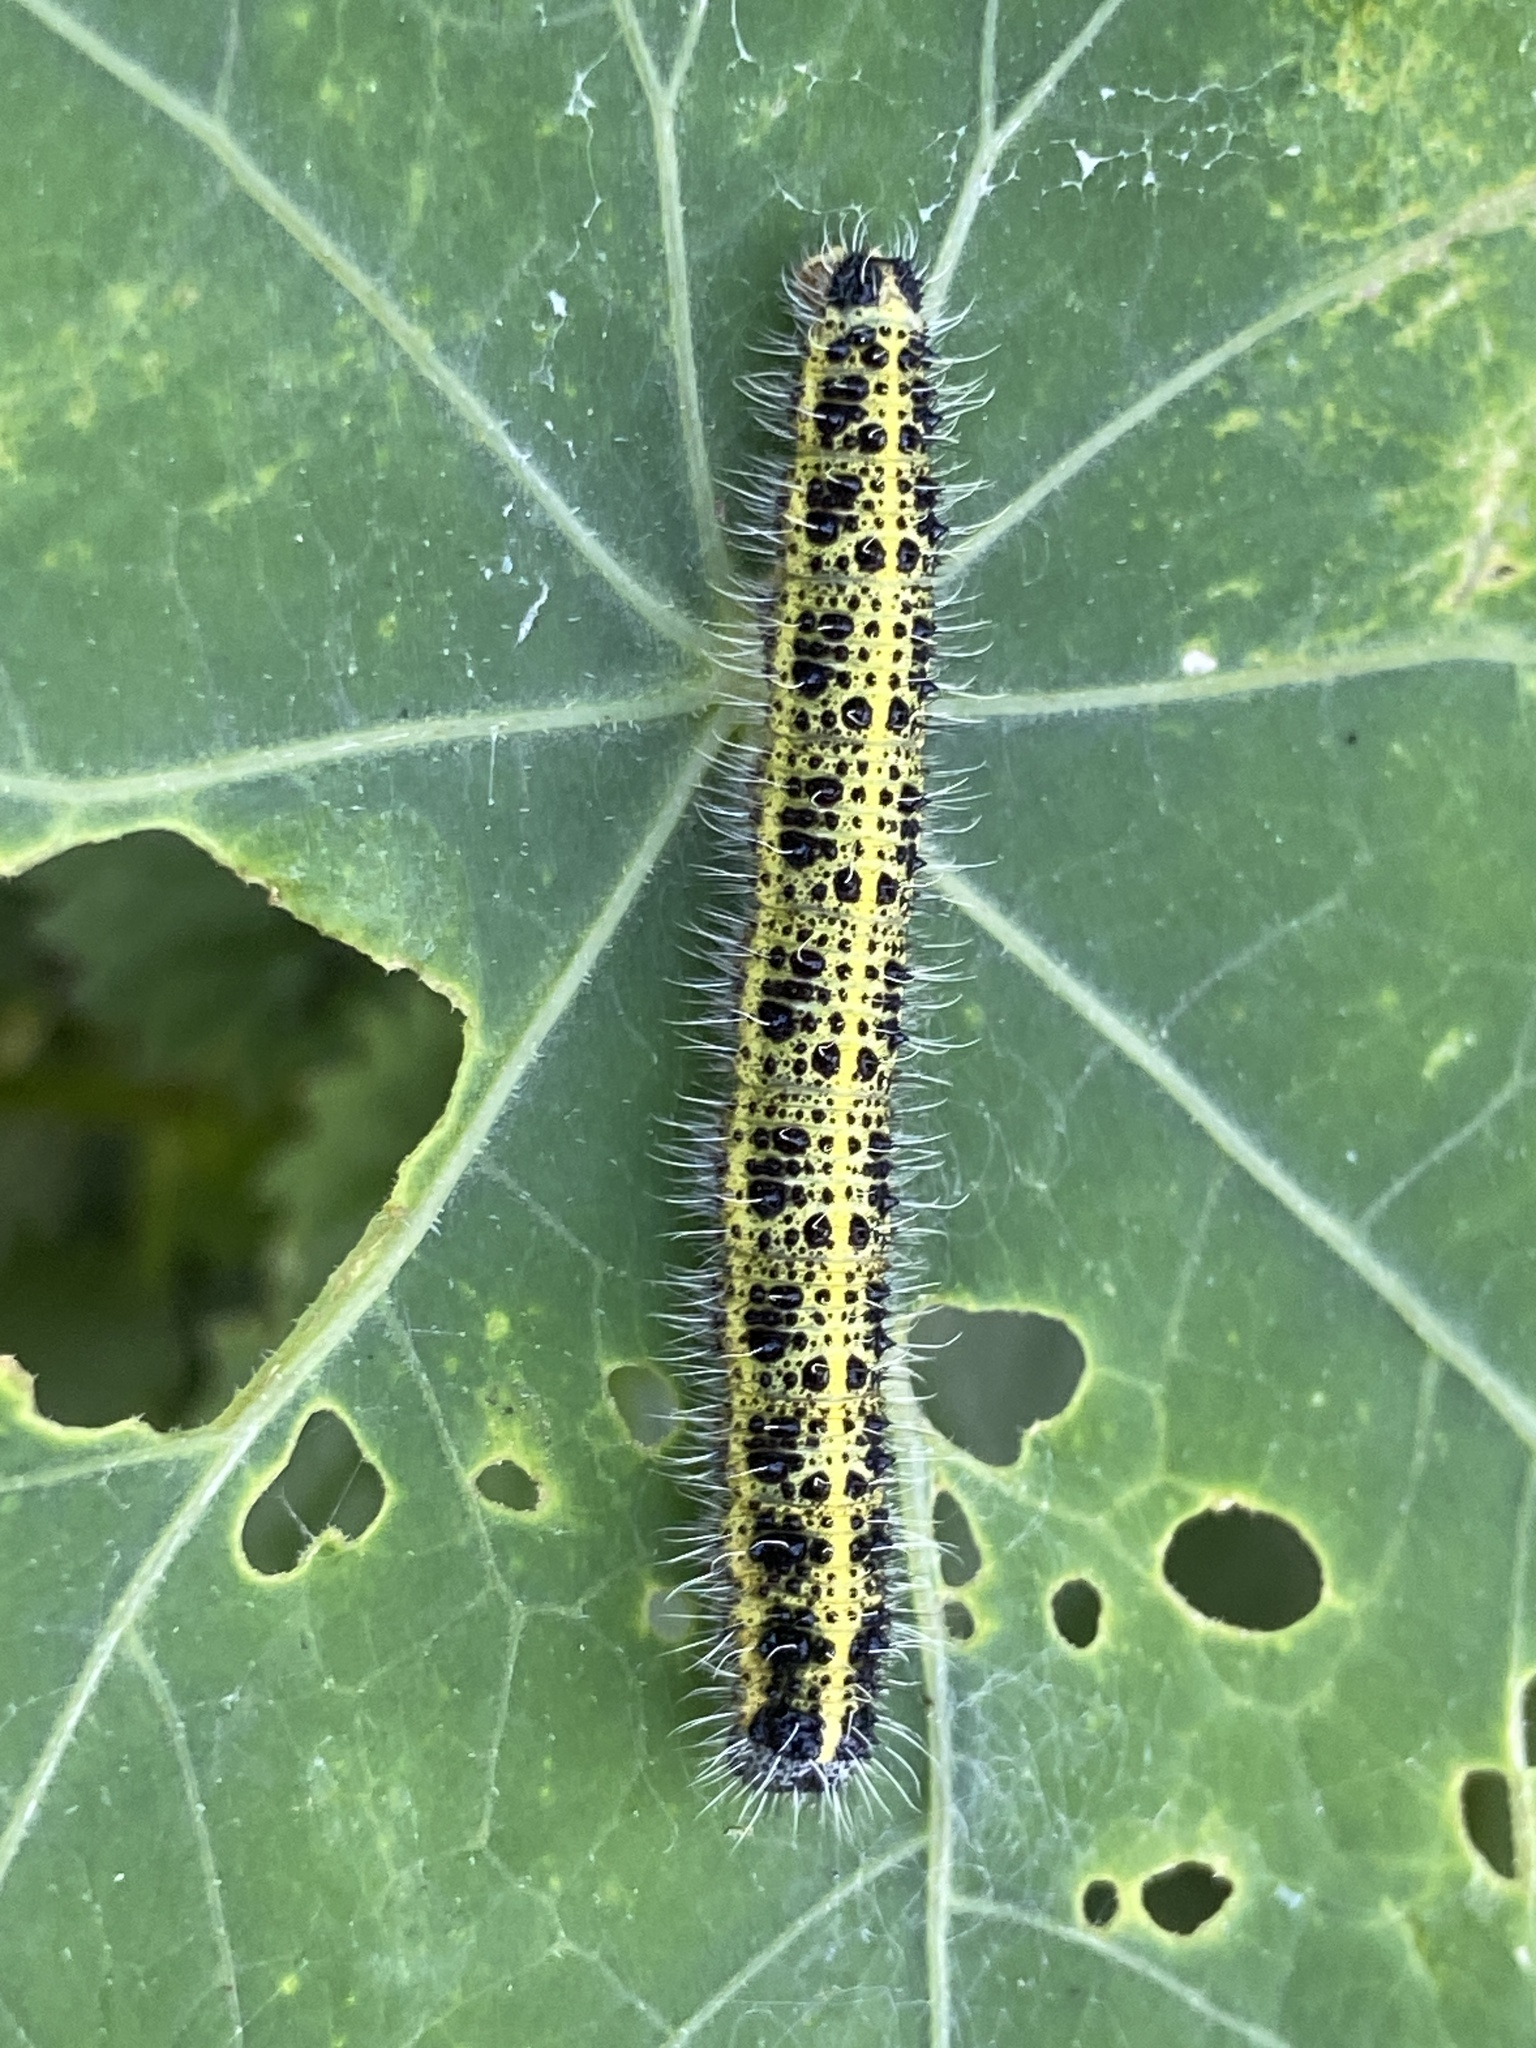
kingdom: Animalia
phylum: Arthropoda
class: Insecta
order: Lepidoptera
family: Pieridae
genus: Pieris
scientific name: Pieris brassicae
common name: Large white
